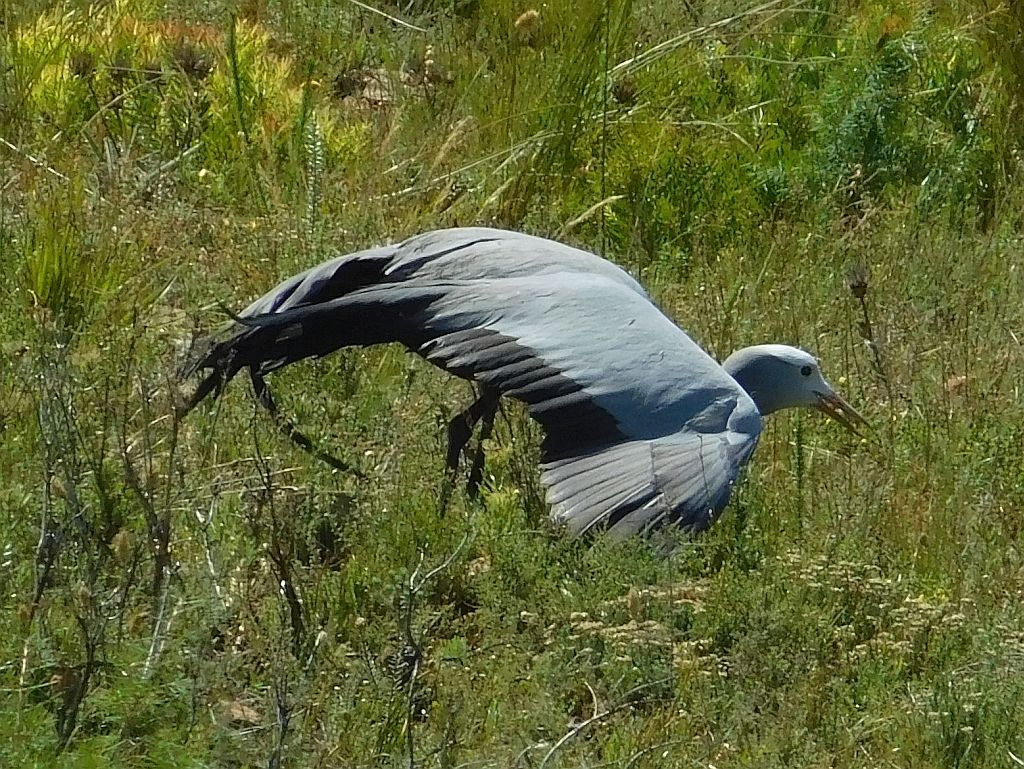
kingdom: Animalia
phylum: Chordata
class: Aves
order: Gruiformes
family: Gruidae
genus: Anthropoides
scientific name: Anthropoides paradiseus
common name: Blue crane
